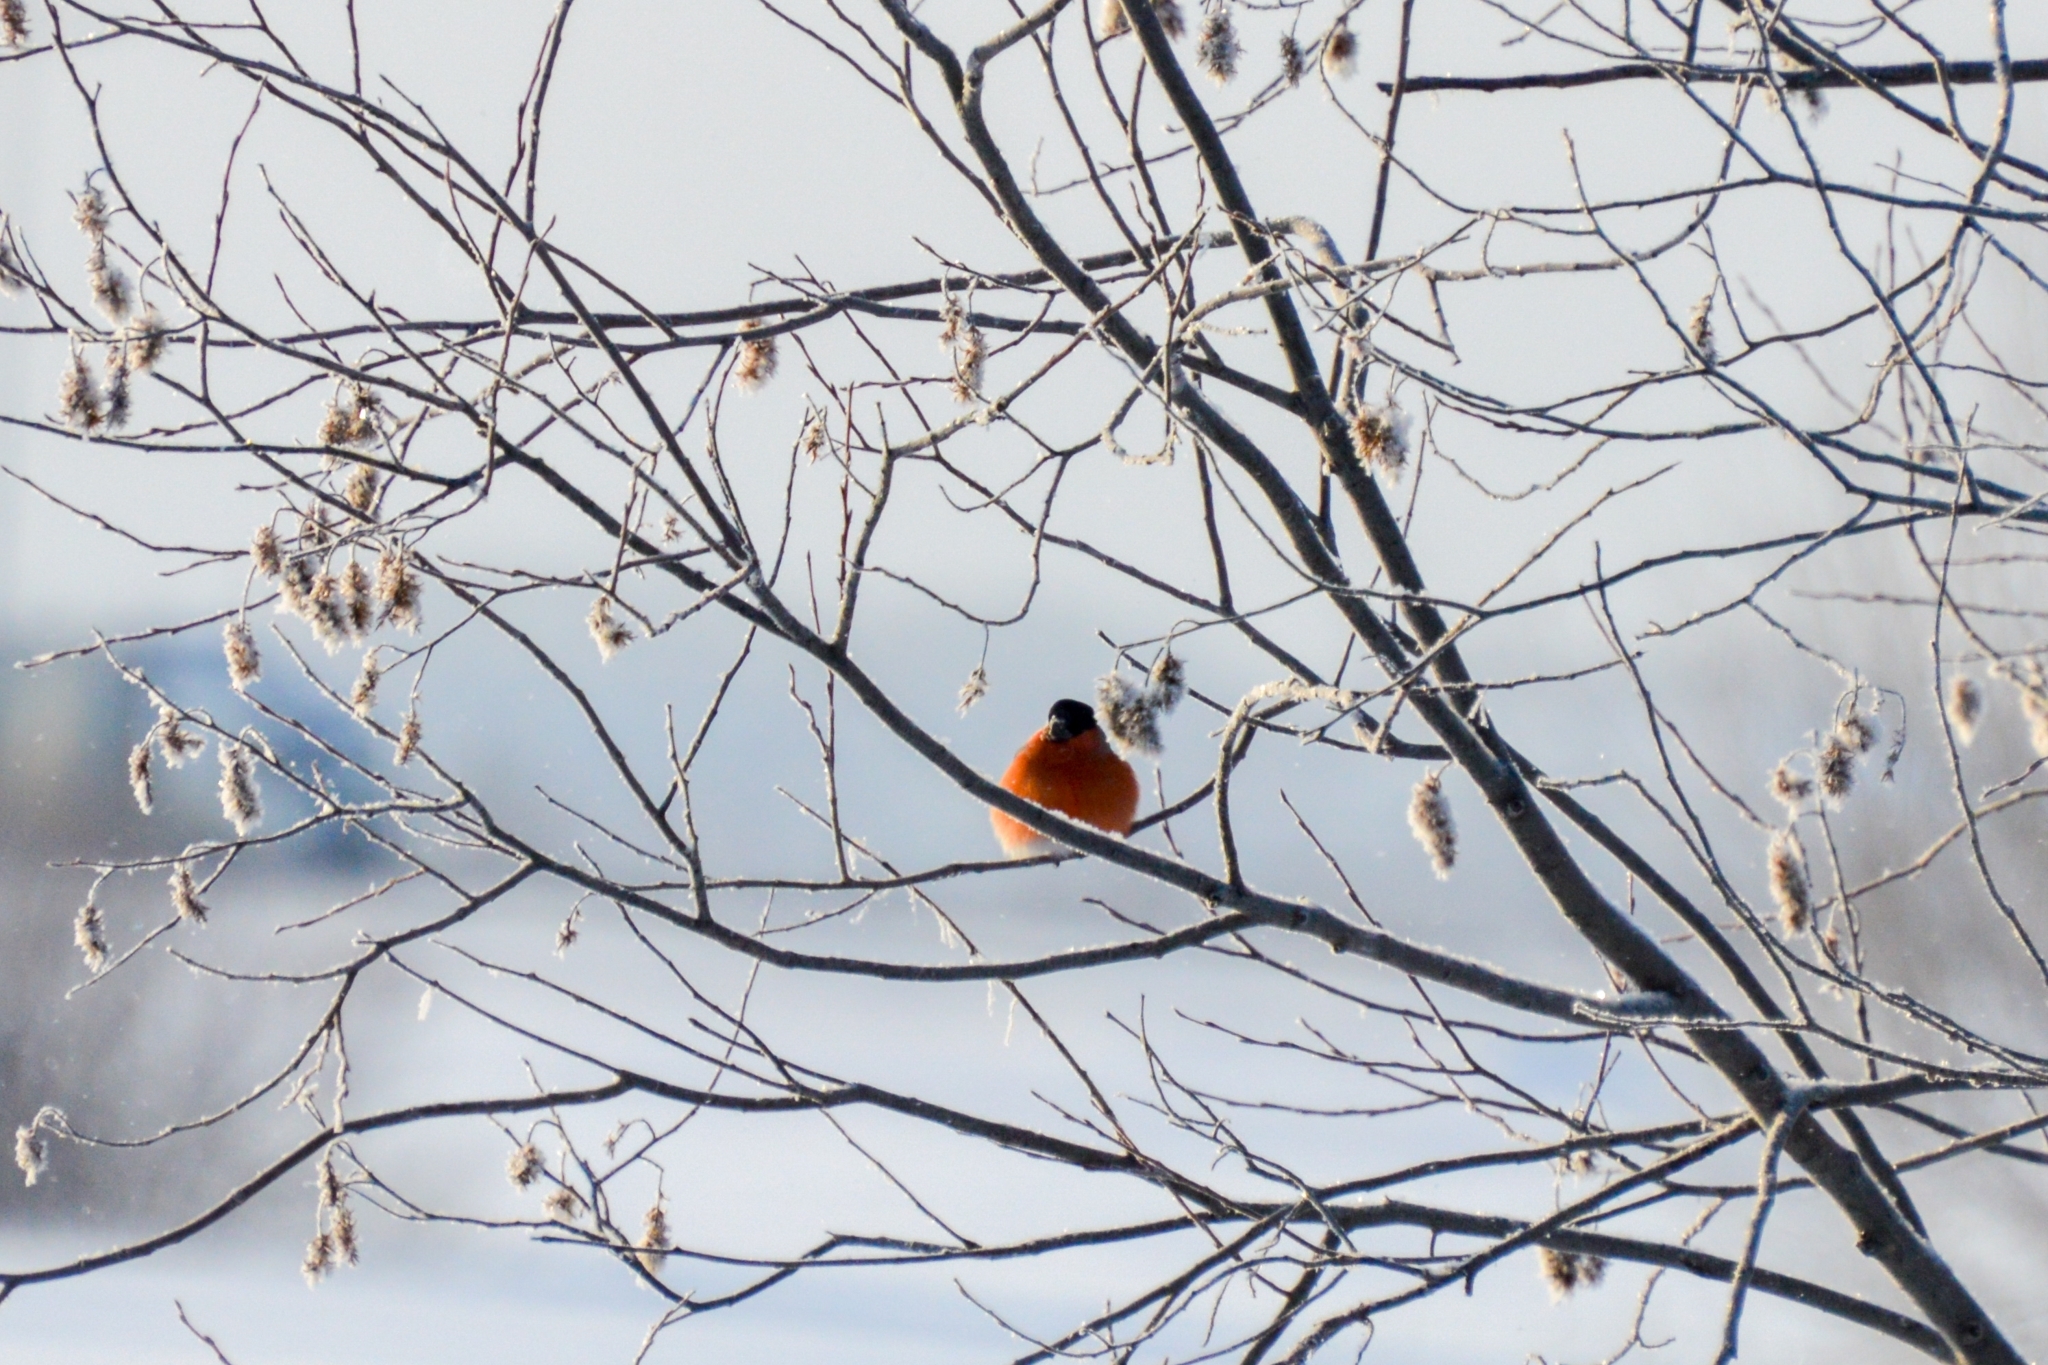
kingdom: Animalia
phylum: Chordata
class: Aves
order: Passeriformes
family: Fringillidae
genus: Pyrrhula
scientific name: Pyrrhula pyrrhula
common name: Eurasian bullfinch
